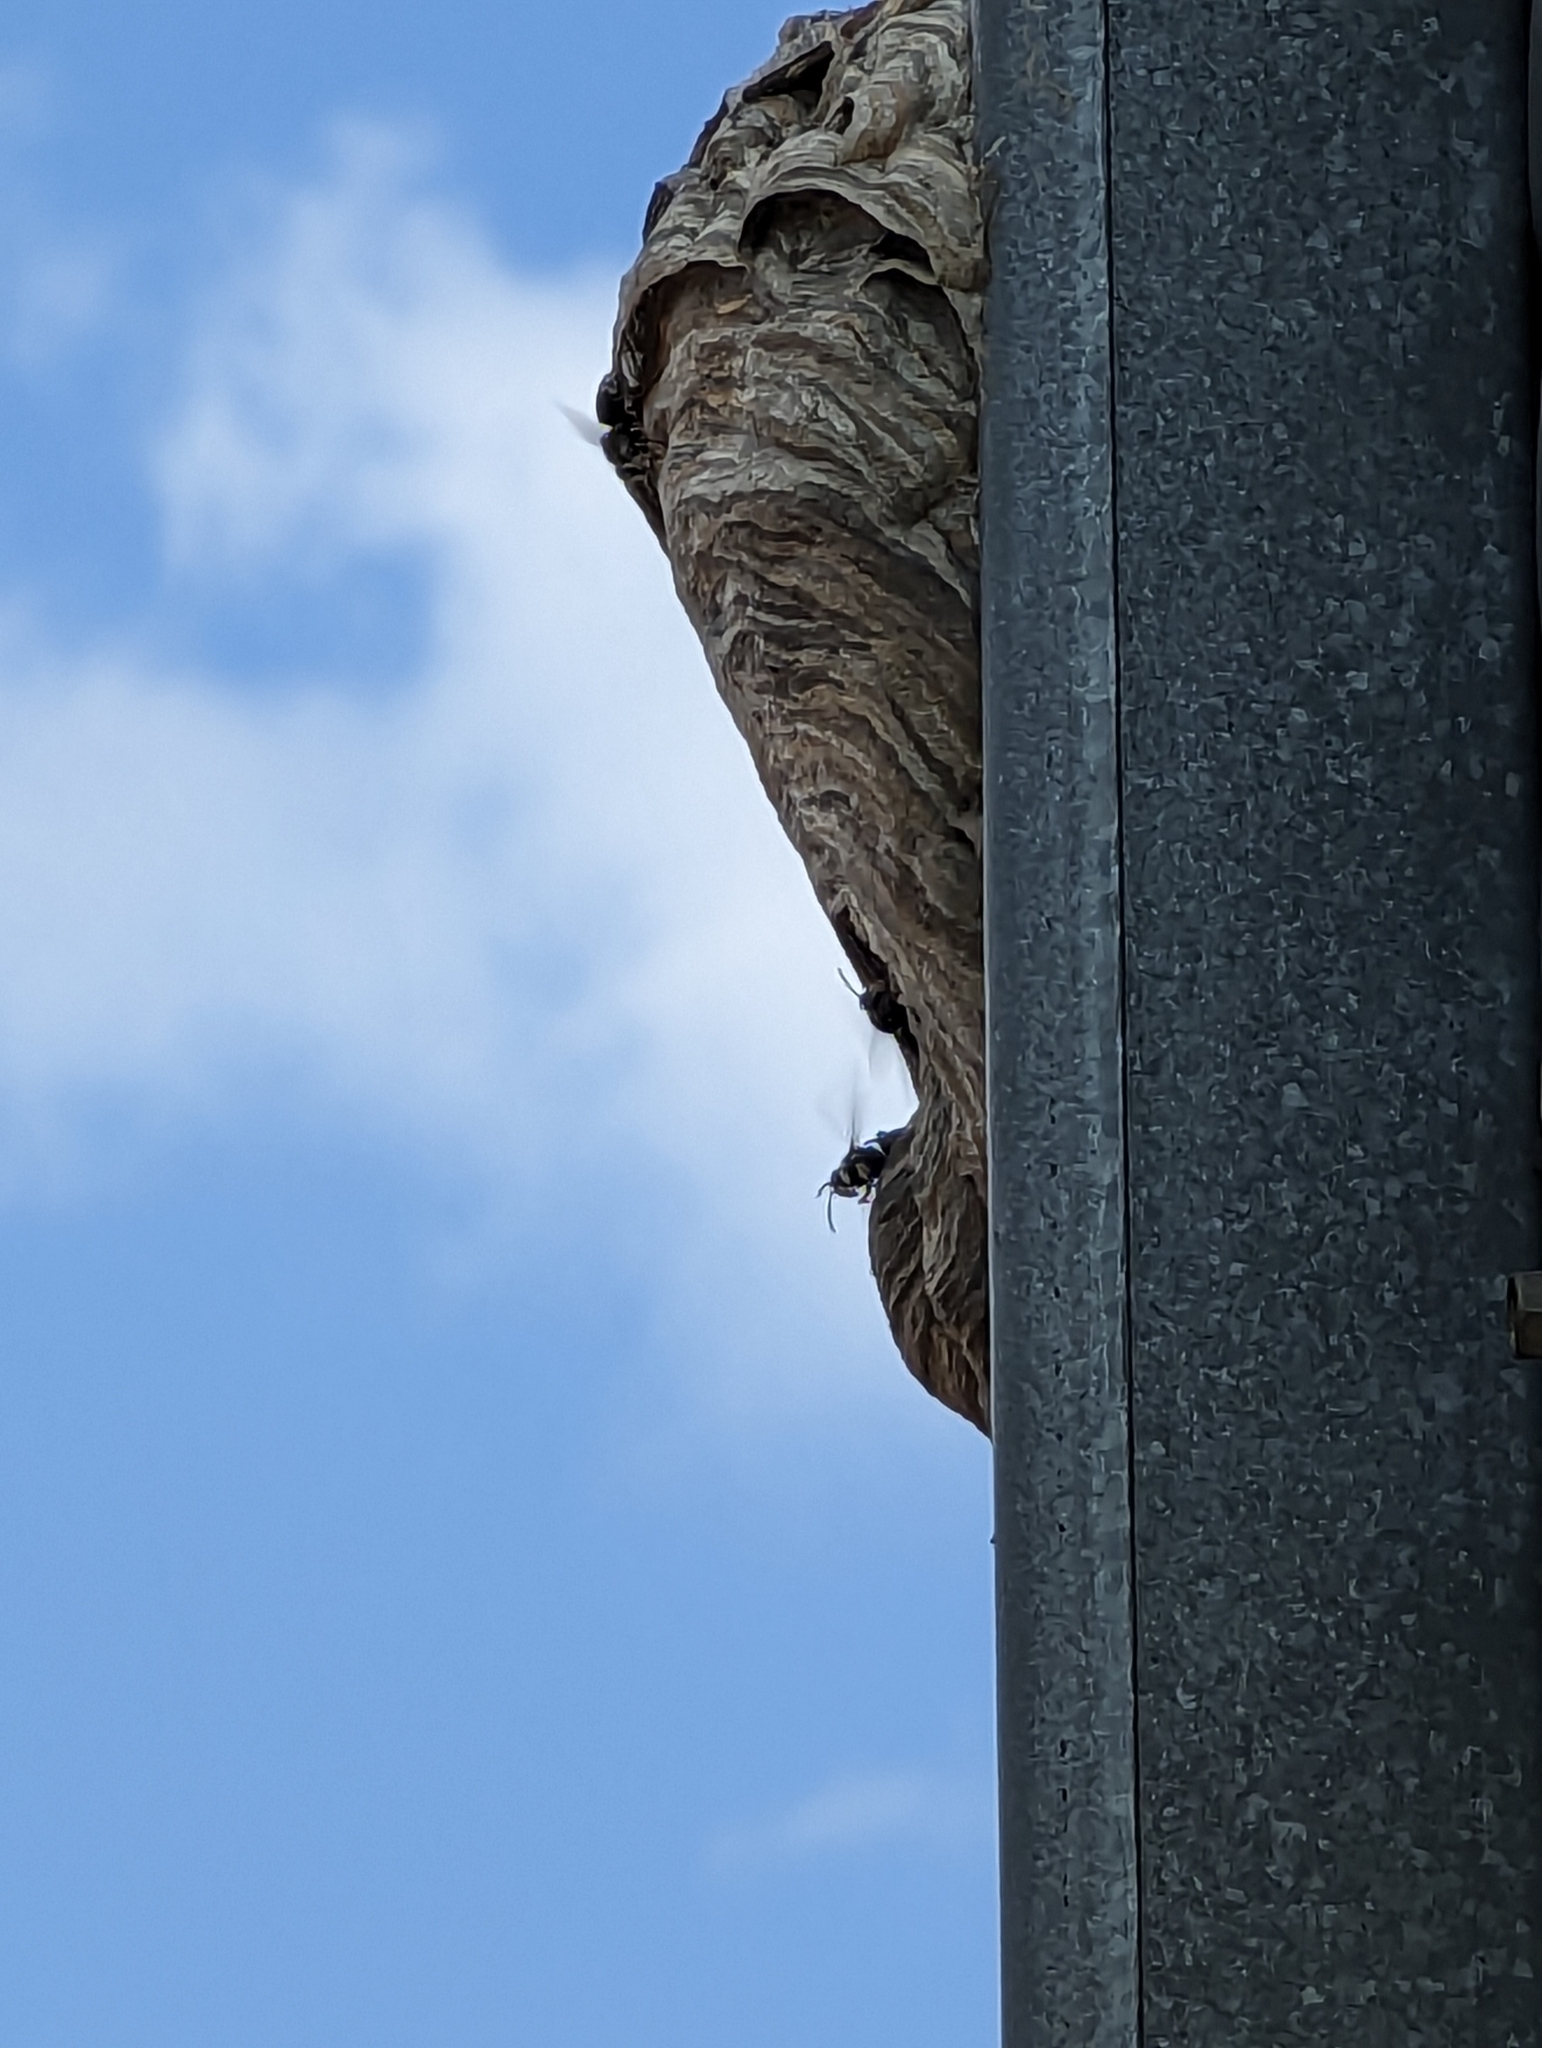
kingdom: Animalia
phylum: Arthropoda
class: Insecta
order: Hymenoptera
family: Vespidae
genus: Dolichovespula
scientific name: Dolichovespula maculata
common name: Bald-faced hornet
